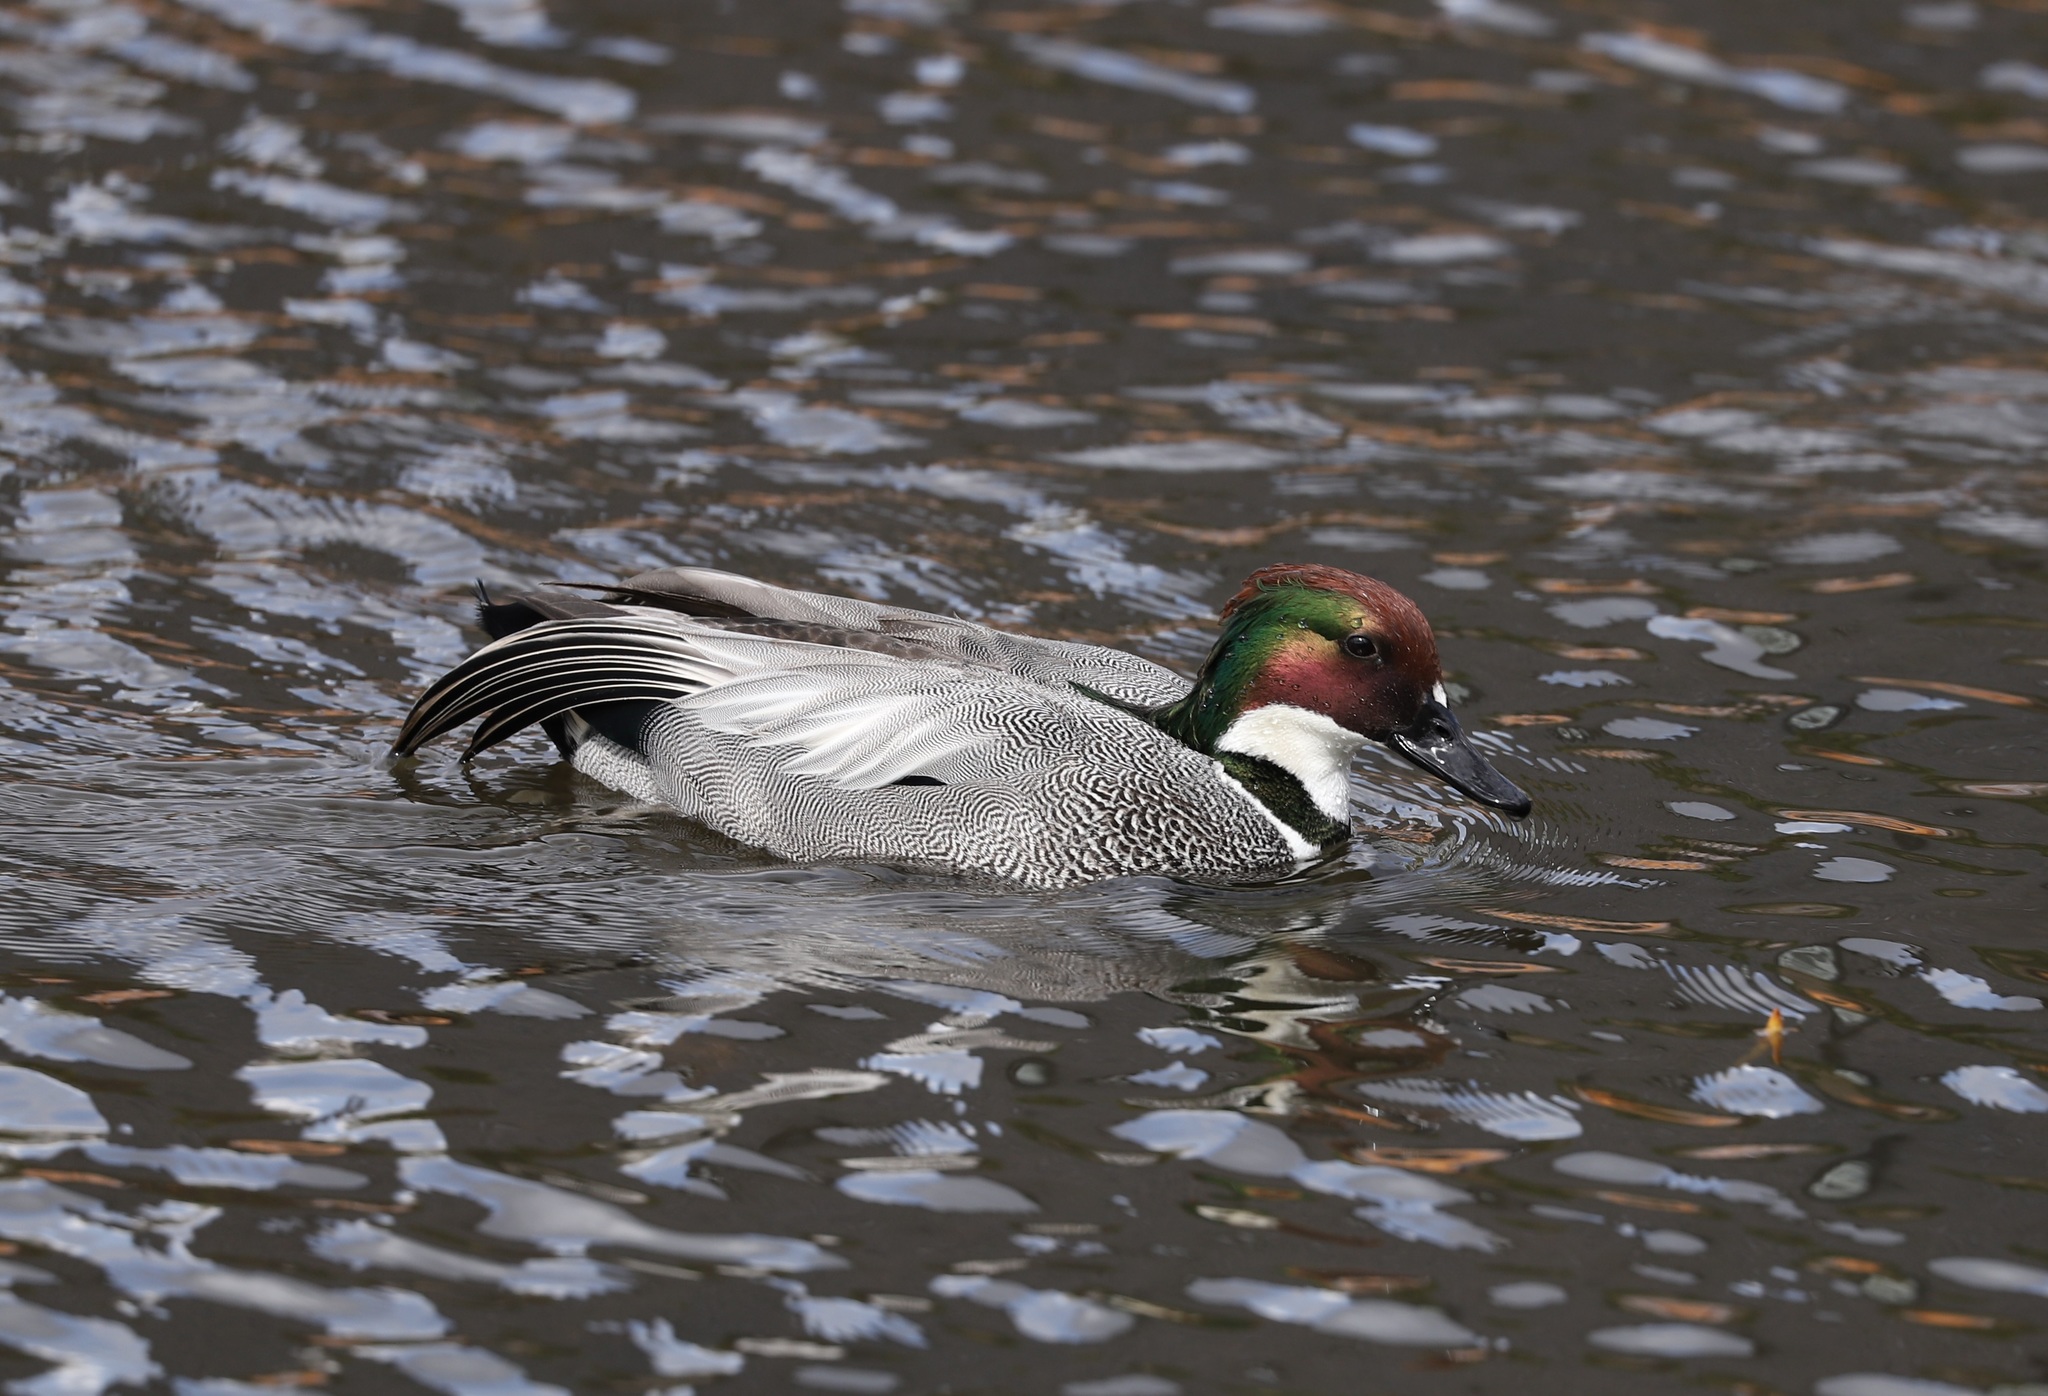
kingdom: Animalia
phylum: Chordata
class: Aves
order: Anseriformes
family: Anatidae
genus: Mareca
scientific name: Mareca falcata
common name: Falcated duck
